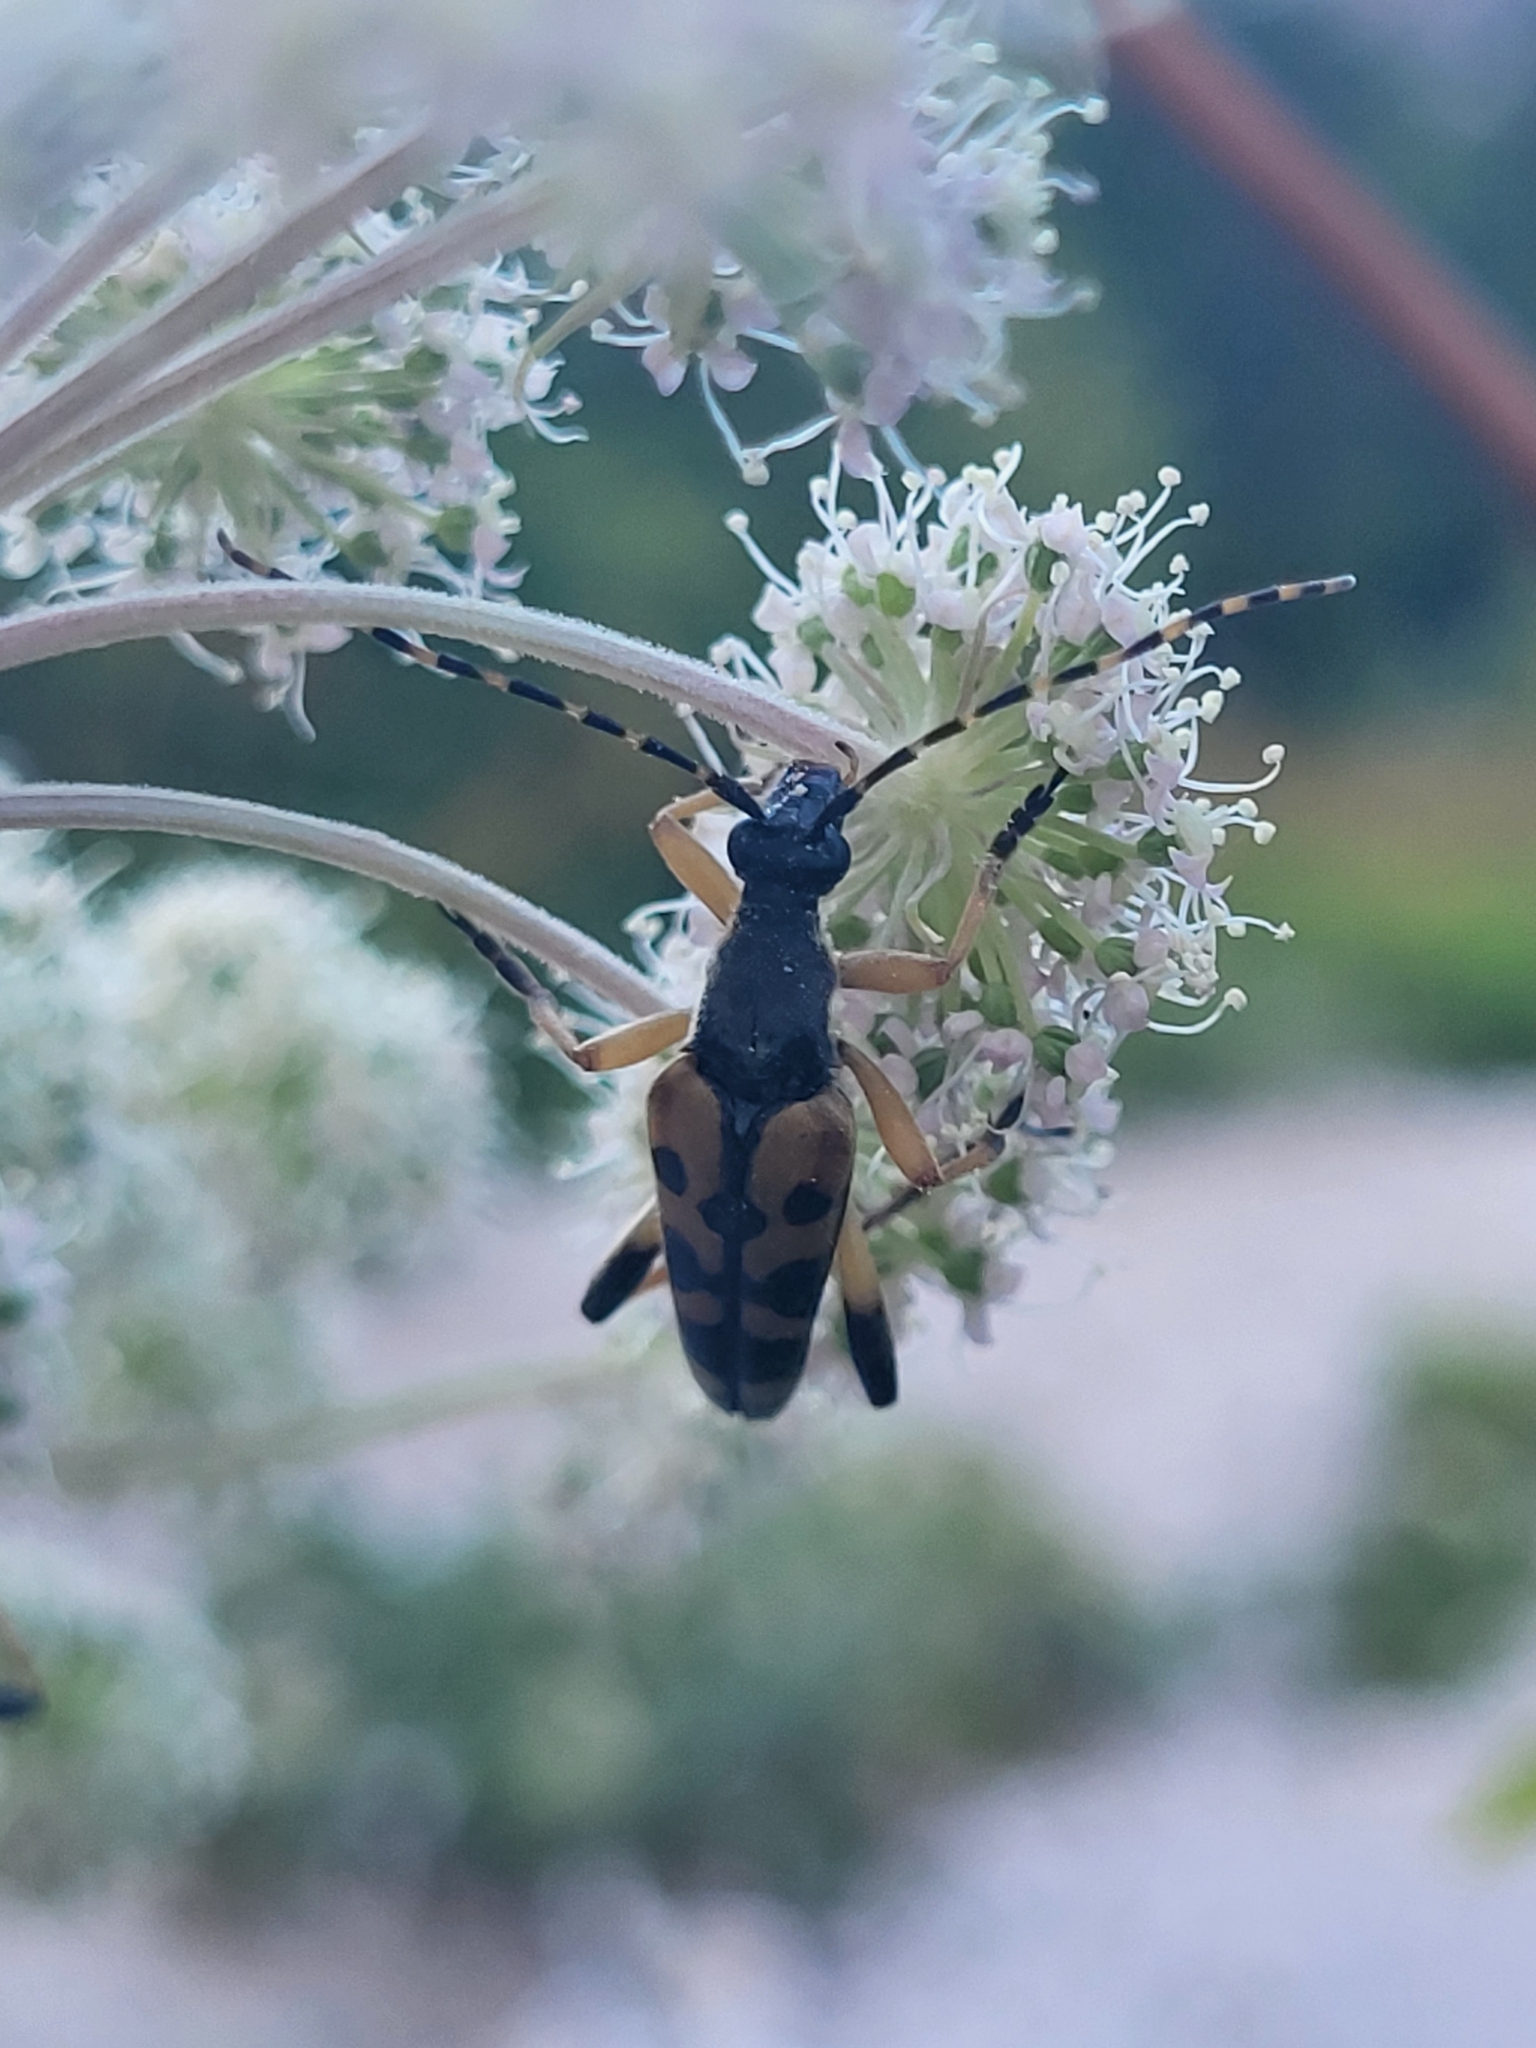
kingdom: Animalia
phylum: Arthropoda
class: Insecta
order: Coleoptera
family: Cerambycidae
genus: Rutpela
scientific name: Rutpela maculata
